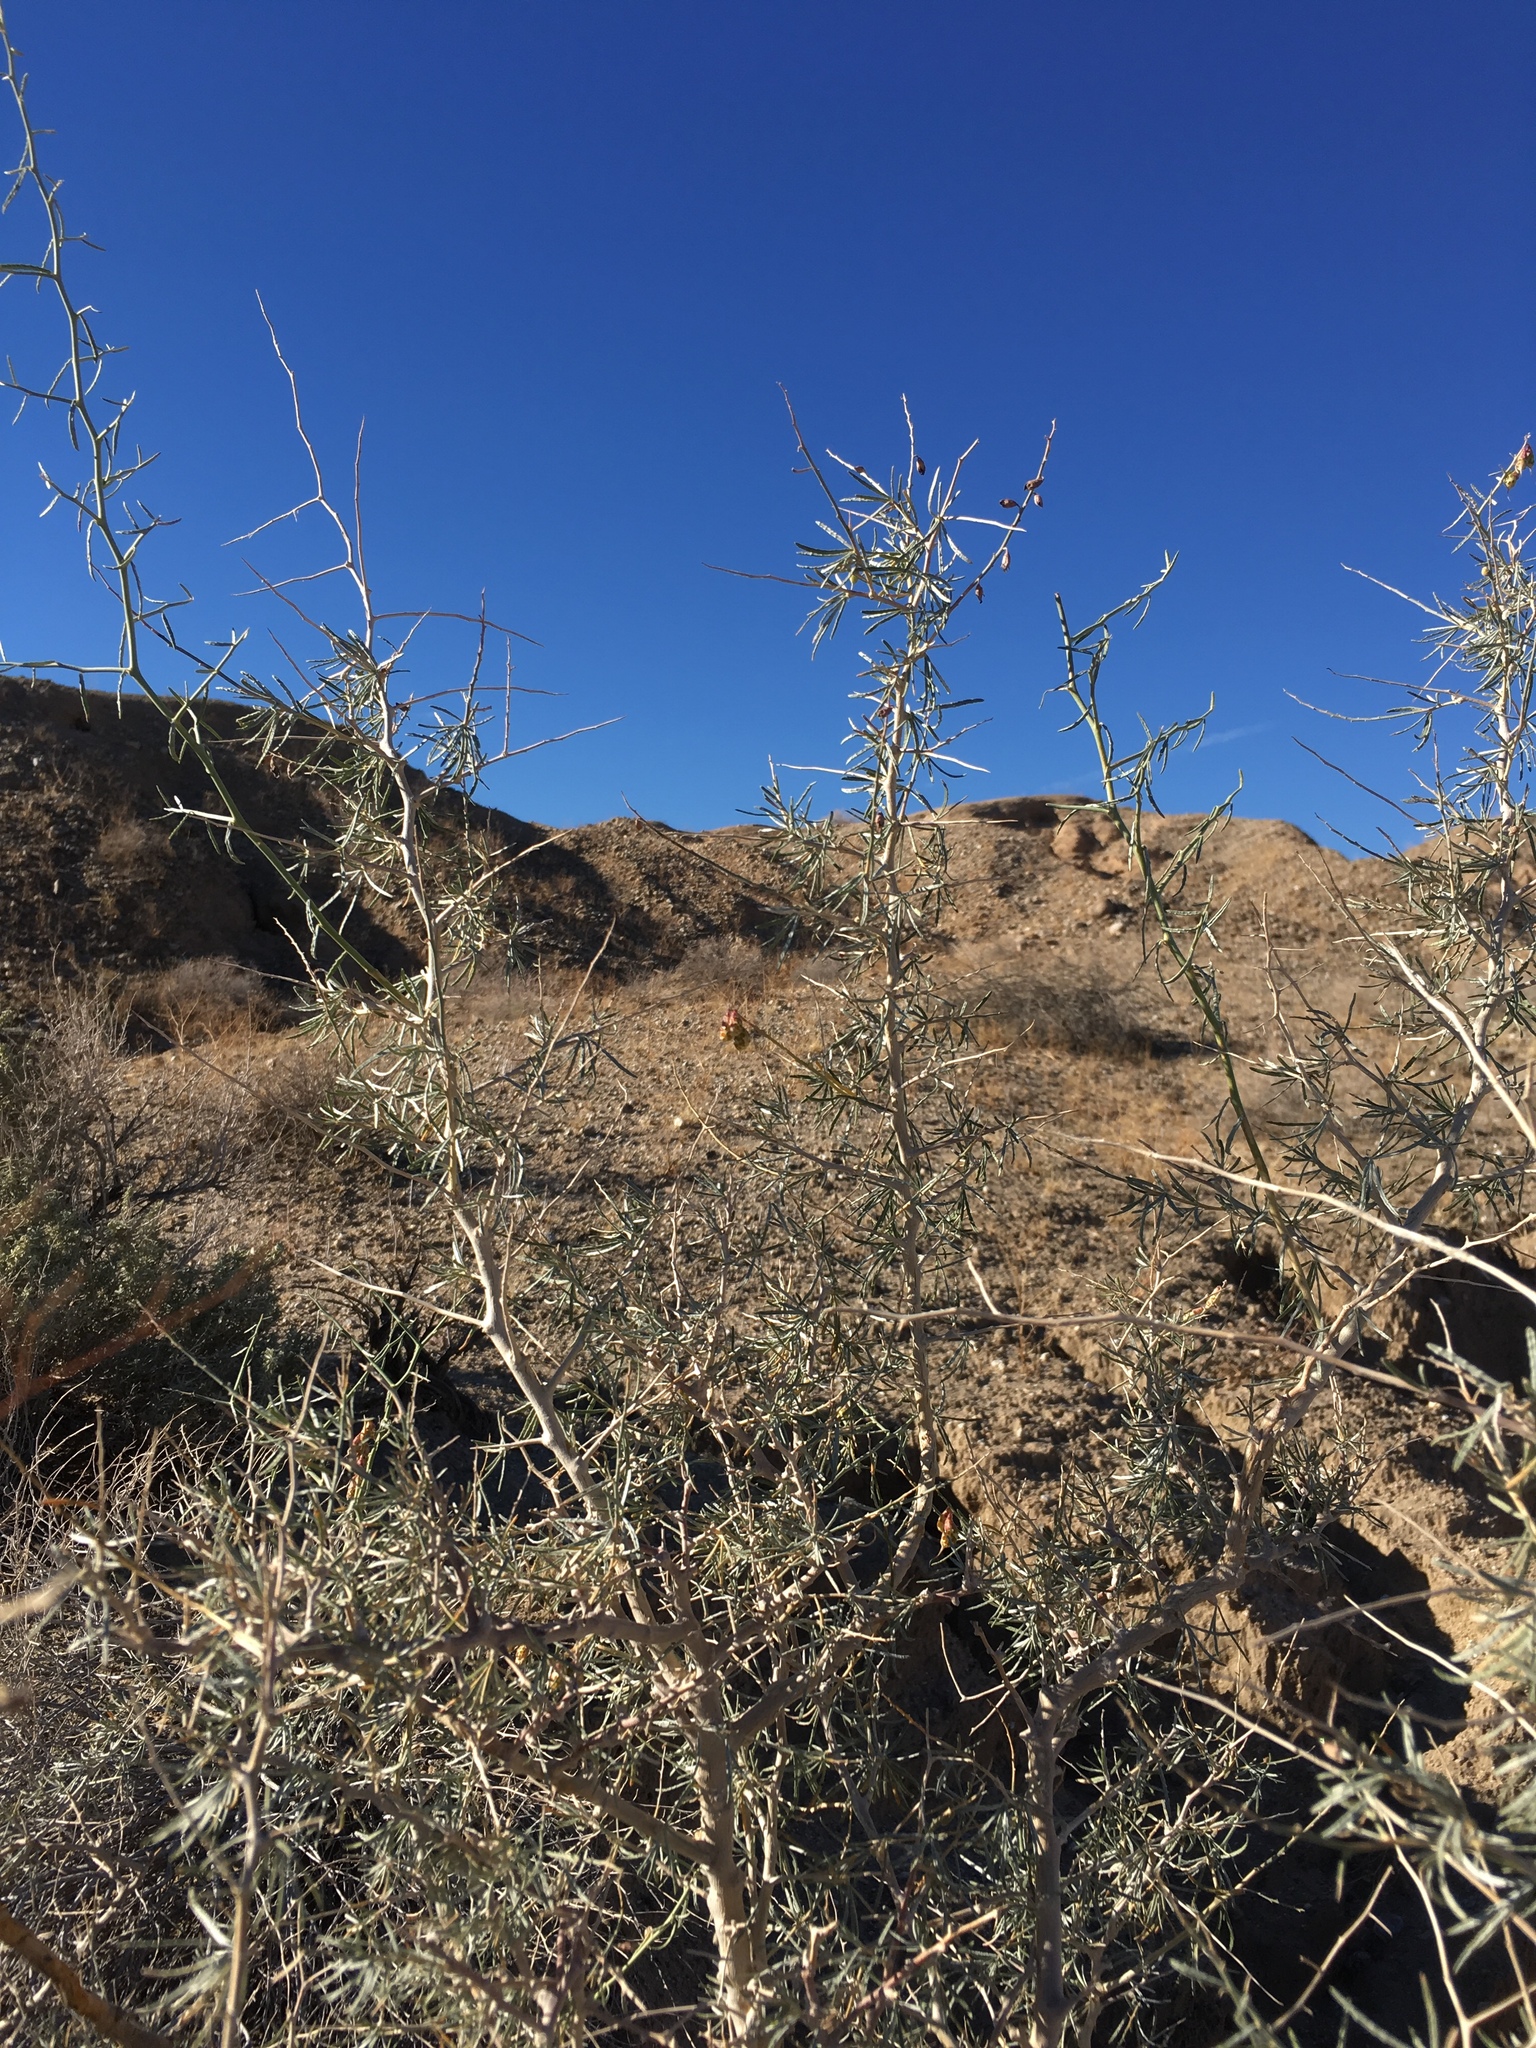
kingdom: Plantae
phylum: Tracheophyta
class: Magnoliopsida
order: Fabales
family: Fabaceae
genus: Psorothamnus
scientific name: Psorothamnus schottii
